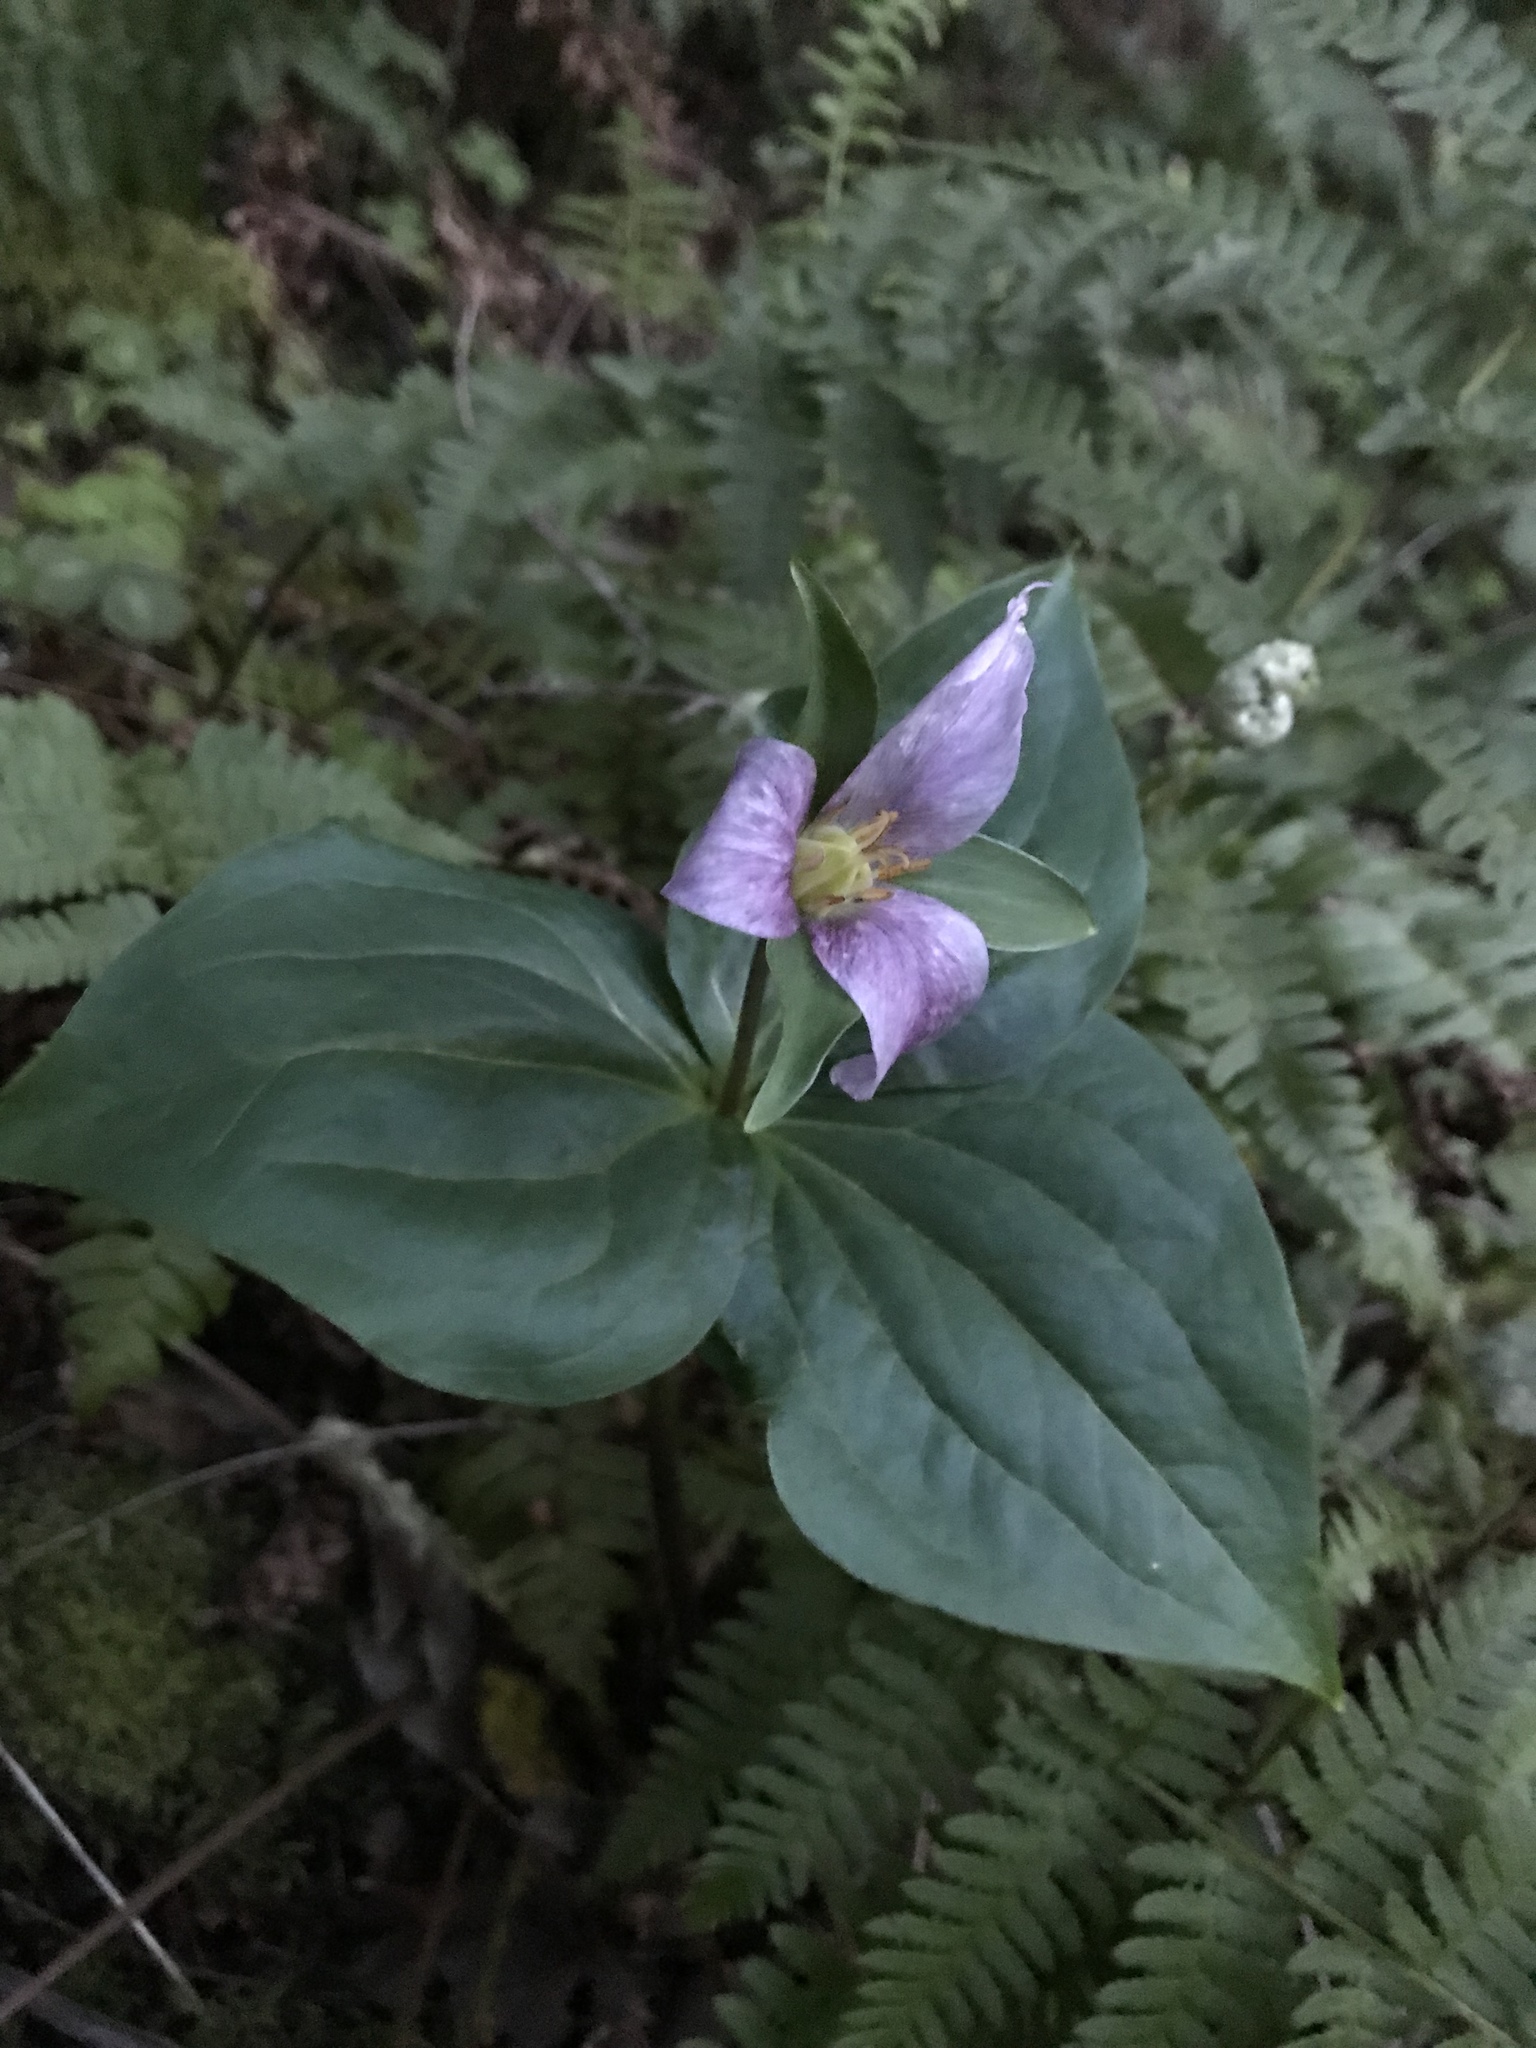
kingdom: Plantae
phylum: Tracheophyta
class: Liliopsida
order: Liliales
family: Melanthiaceae
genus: Trillium
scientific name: Trillium ovatum
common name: Pacific trillium
